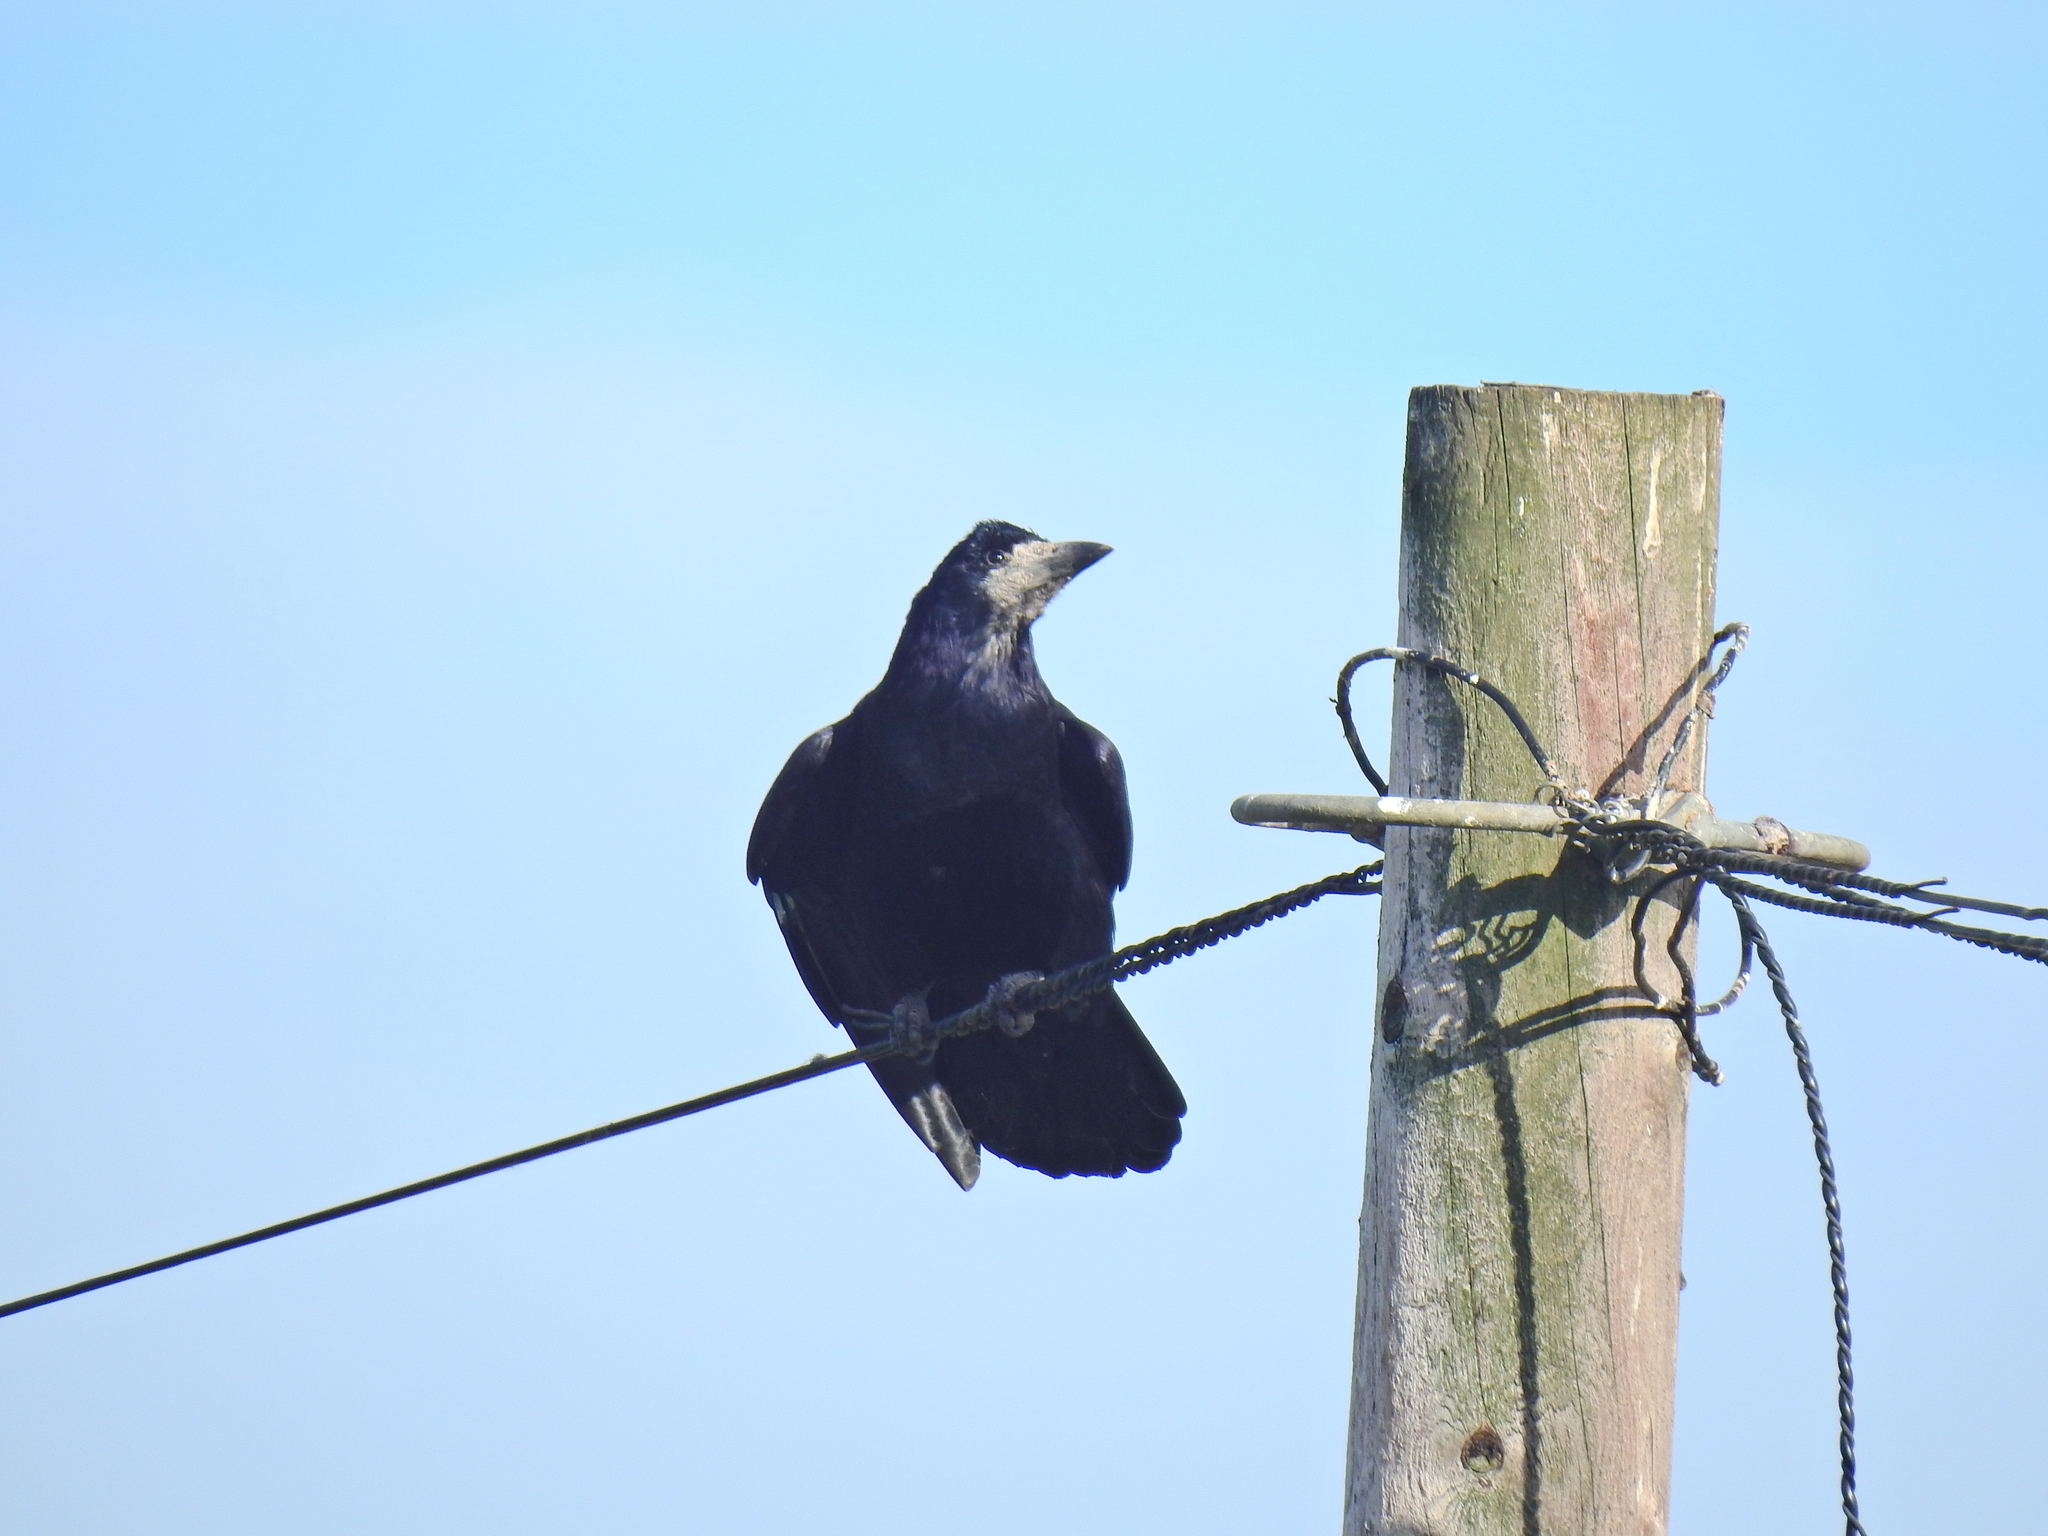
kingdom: Animalia
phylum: Chordata
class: Aves
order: Passeriformes
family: Corvidae
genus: Corvus
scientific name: Corvus frugilegus
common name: Rook
